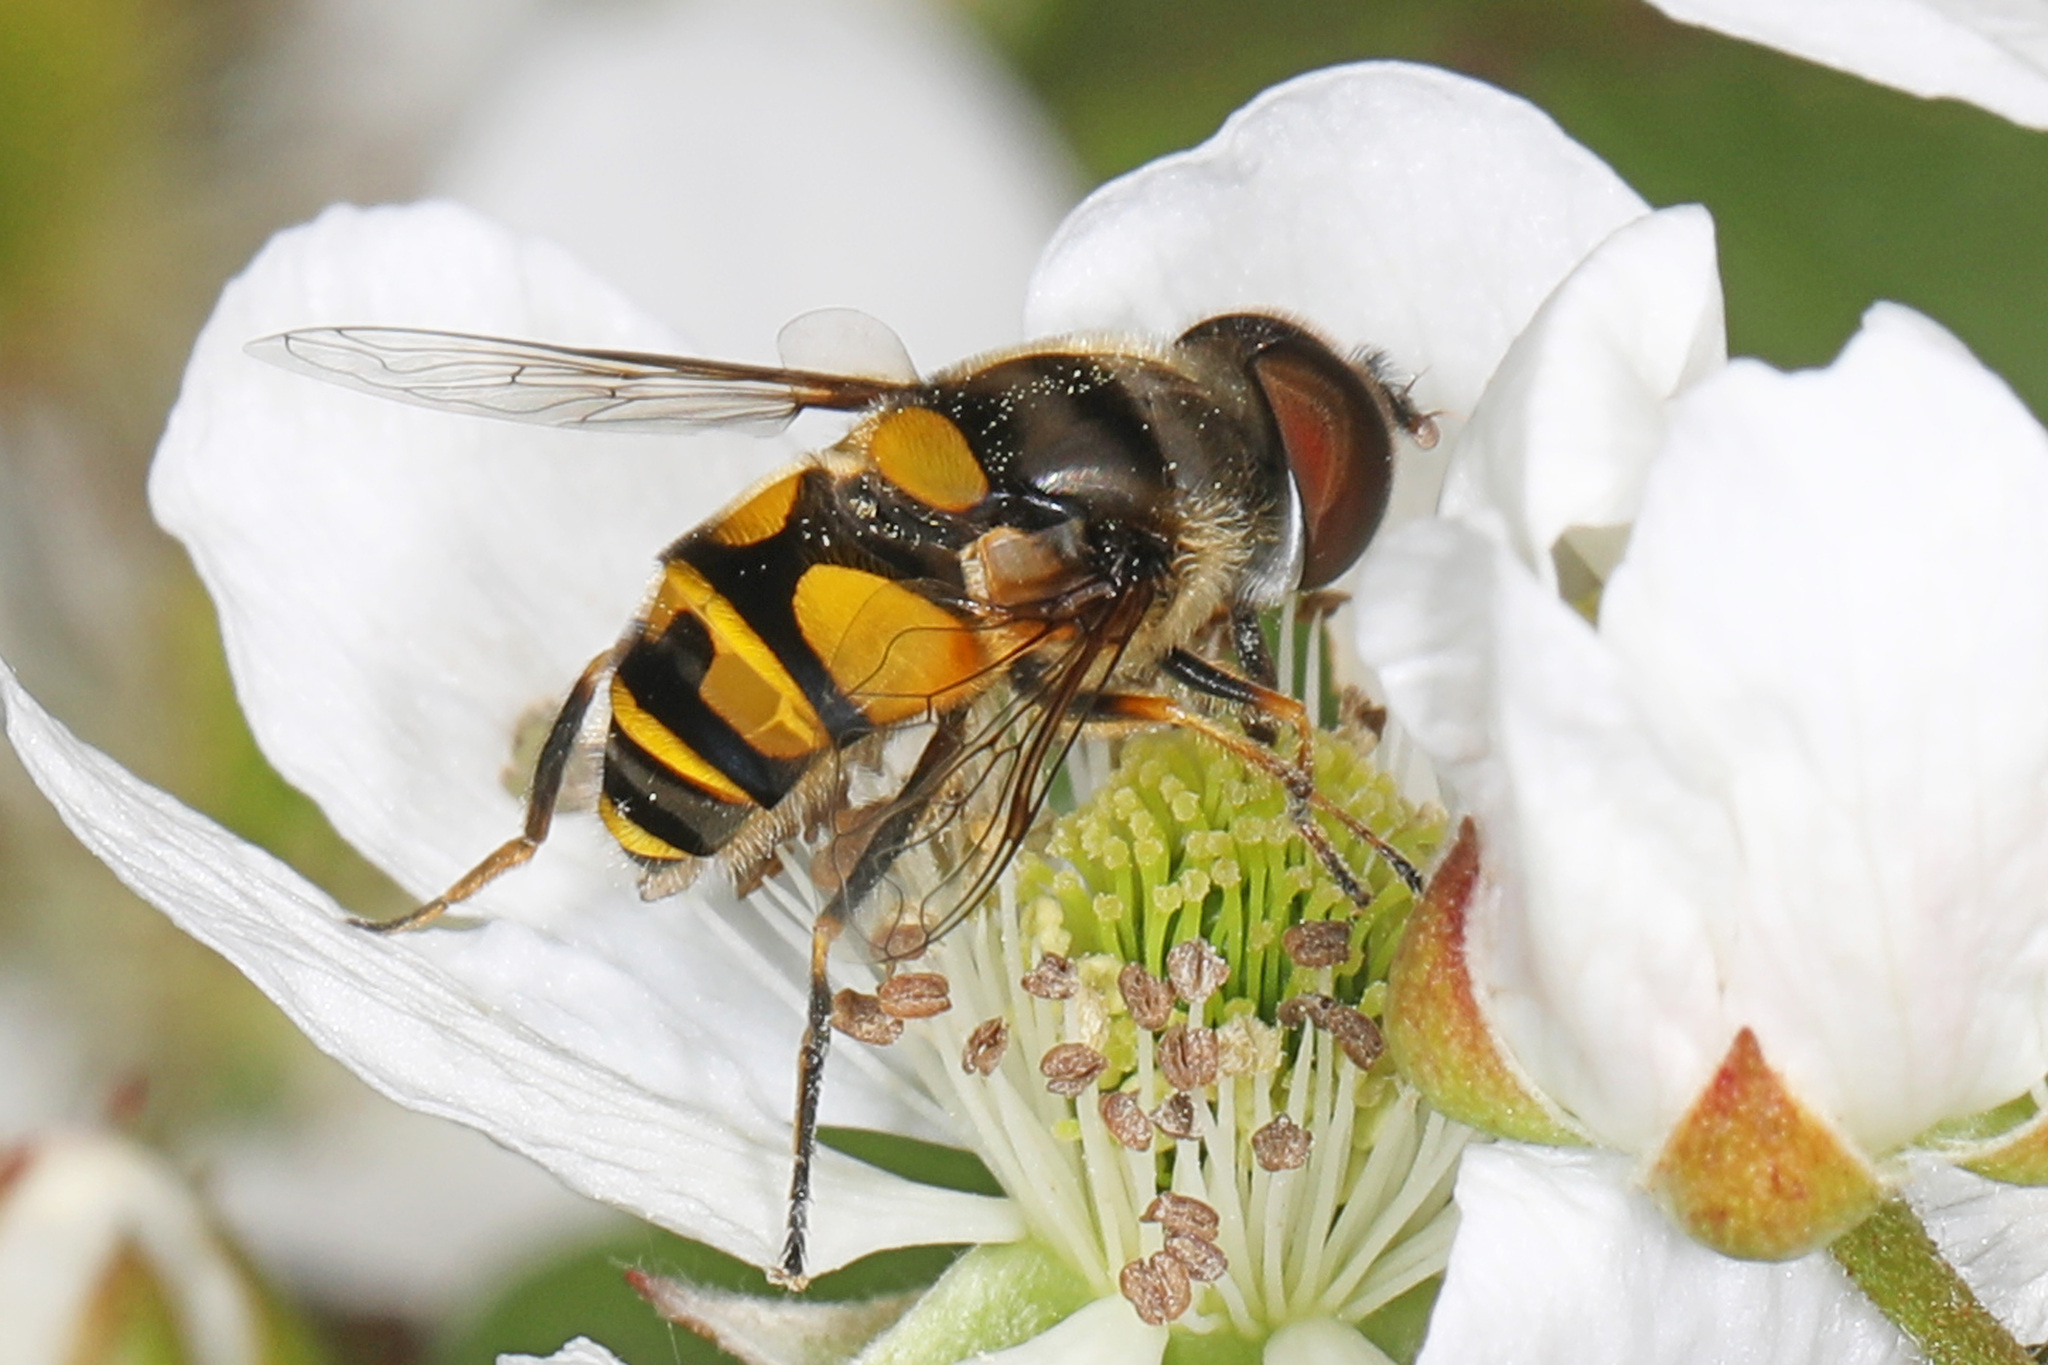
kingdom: Animalia
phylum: Arthropoda
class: Insecta
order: Diptera
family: Syrphidae
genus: Eristalis
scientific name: Eristalis transversa
